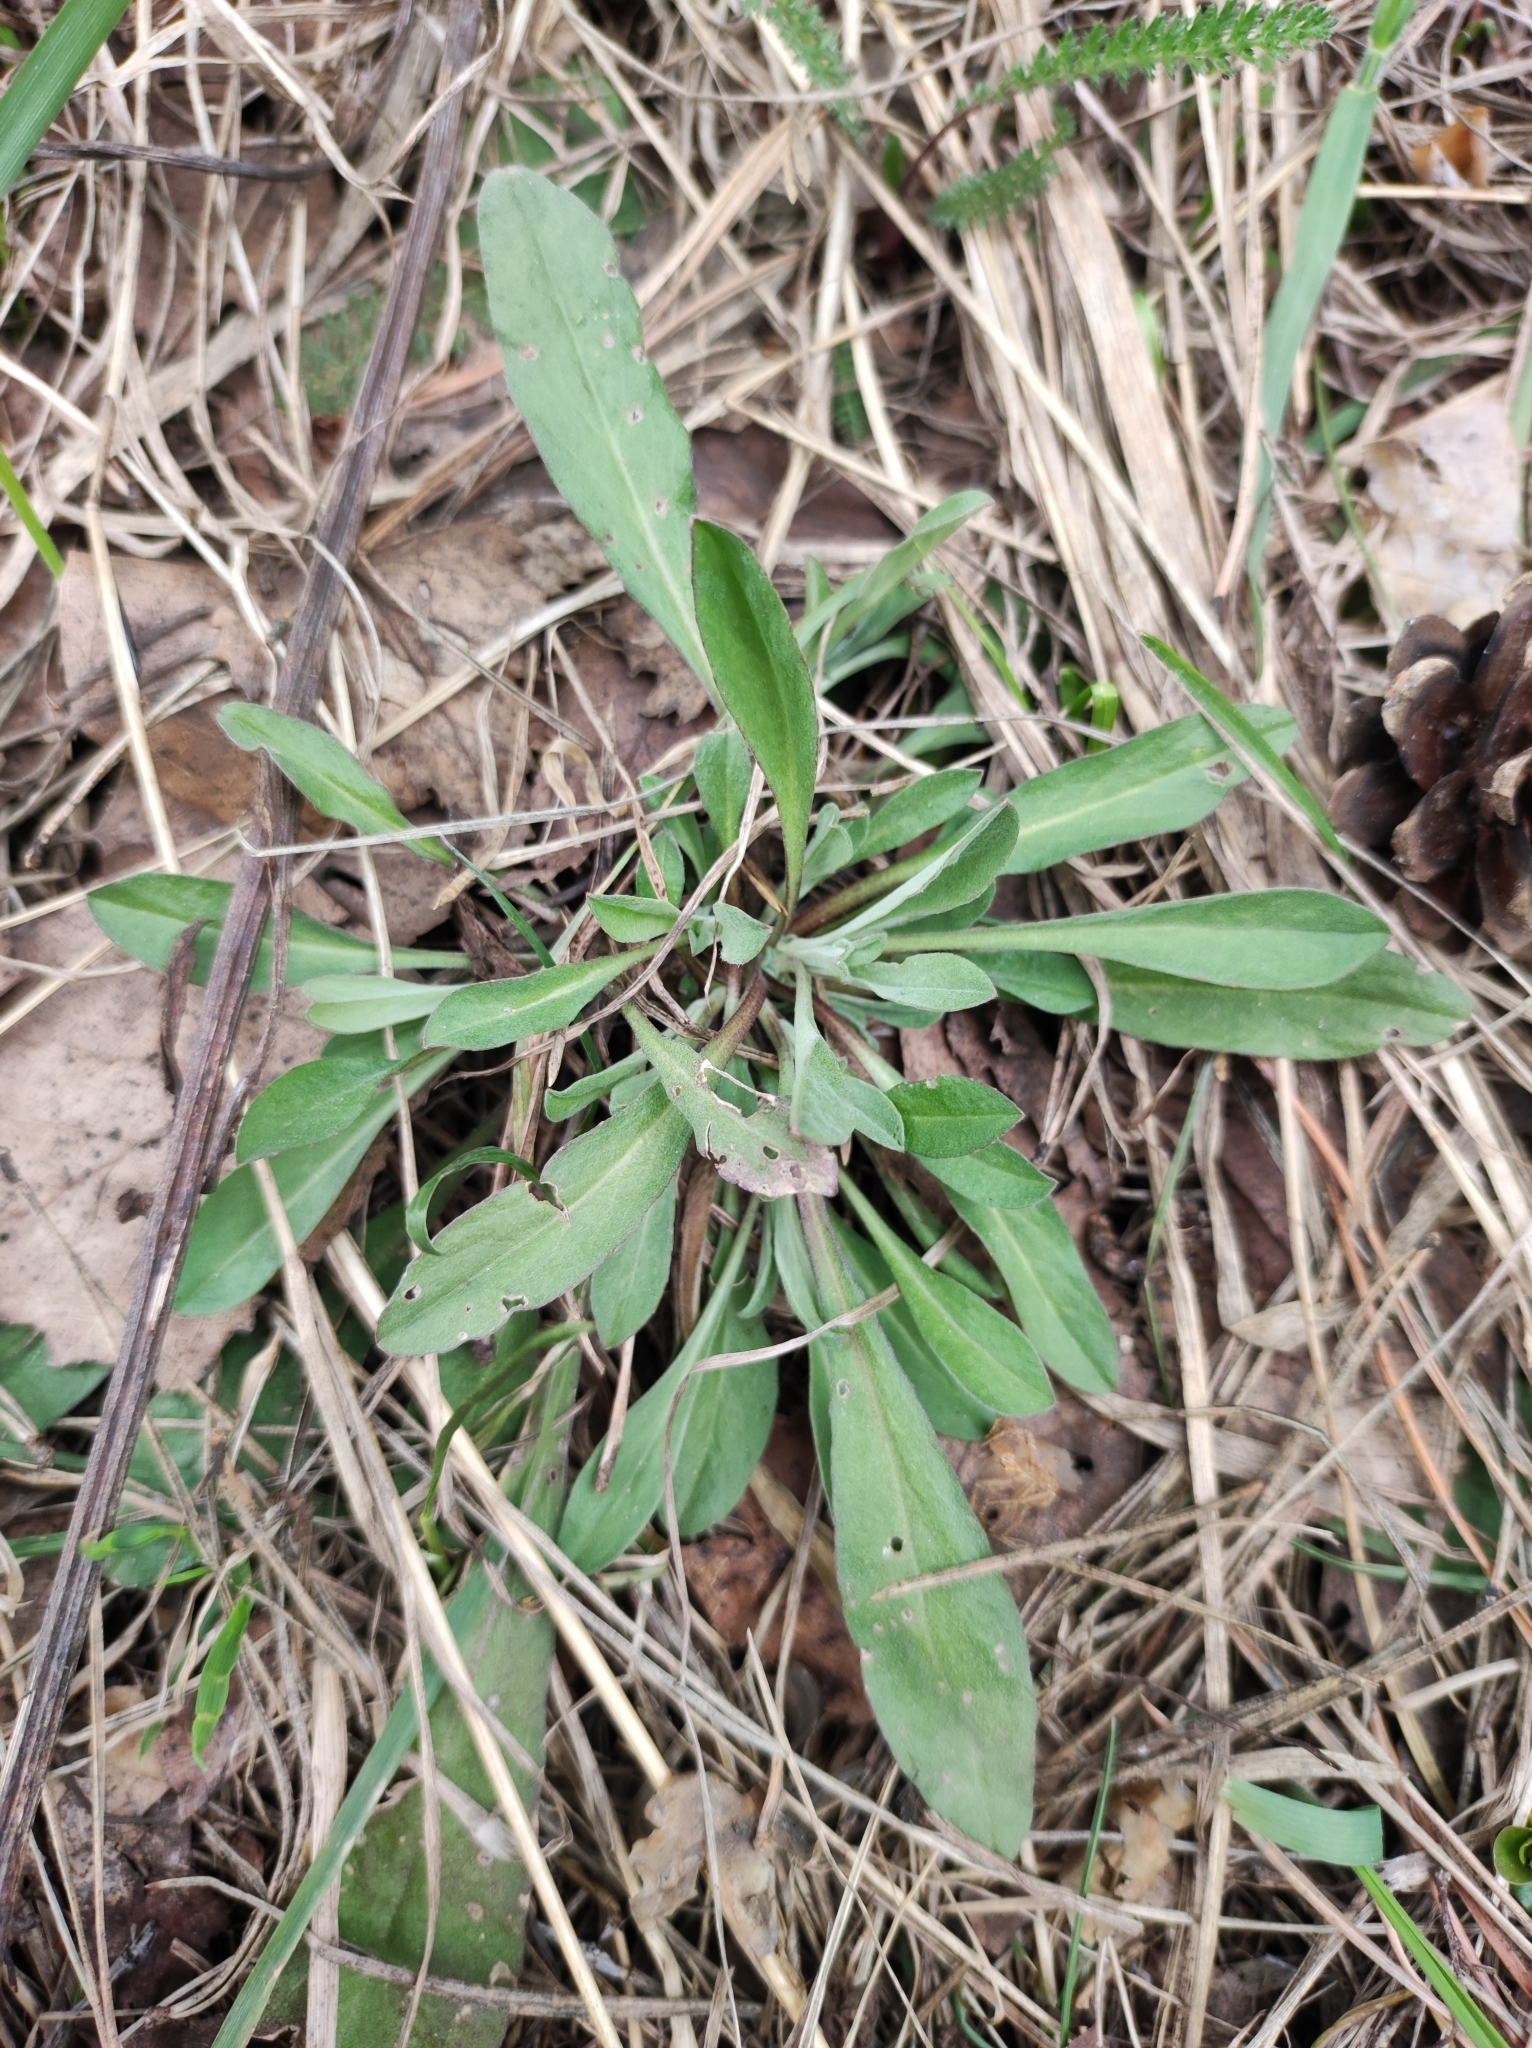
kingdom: Plantae
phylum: Tracheophyta
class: Magnoliopsida
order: Brassicales
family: Brassicaceae
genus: Berteroa
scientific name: Berteroa incana
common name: Hoary alison
